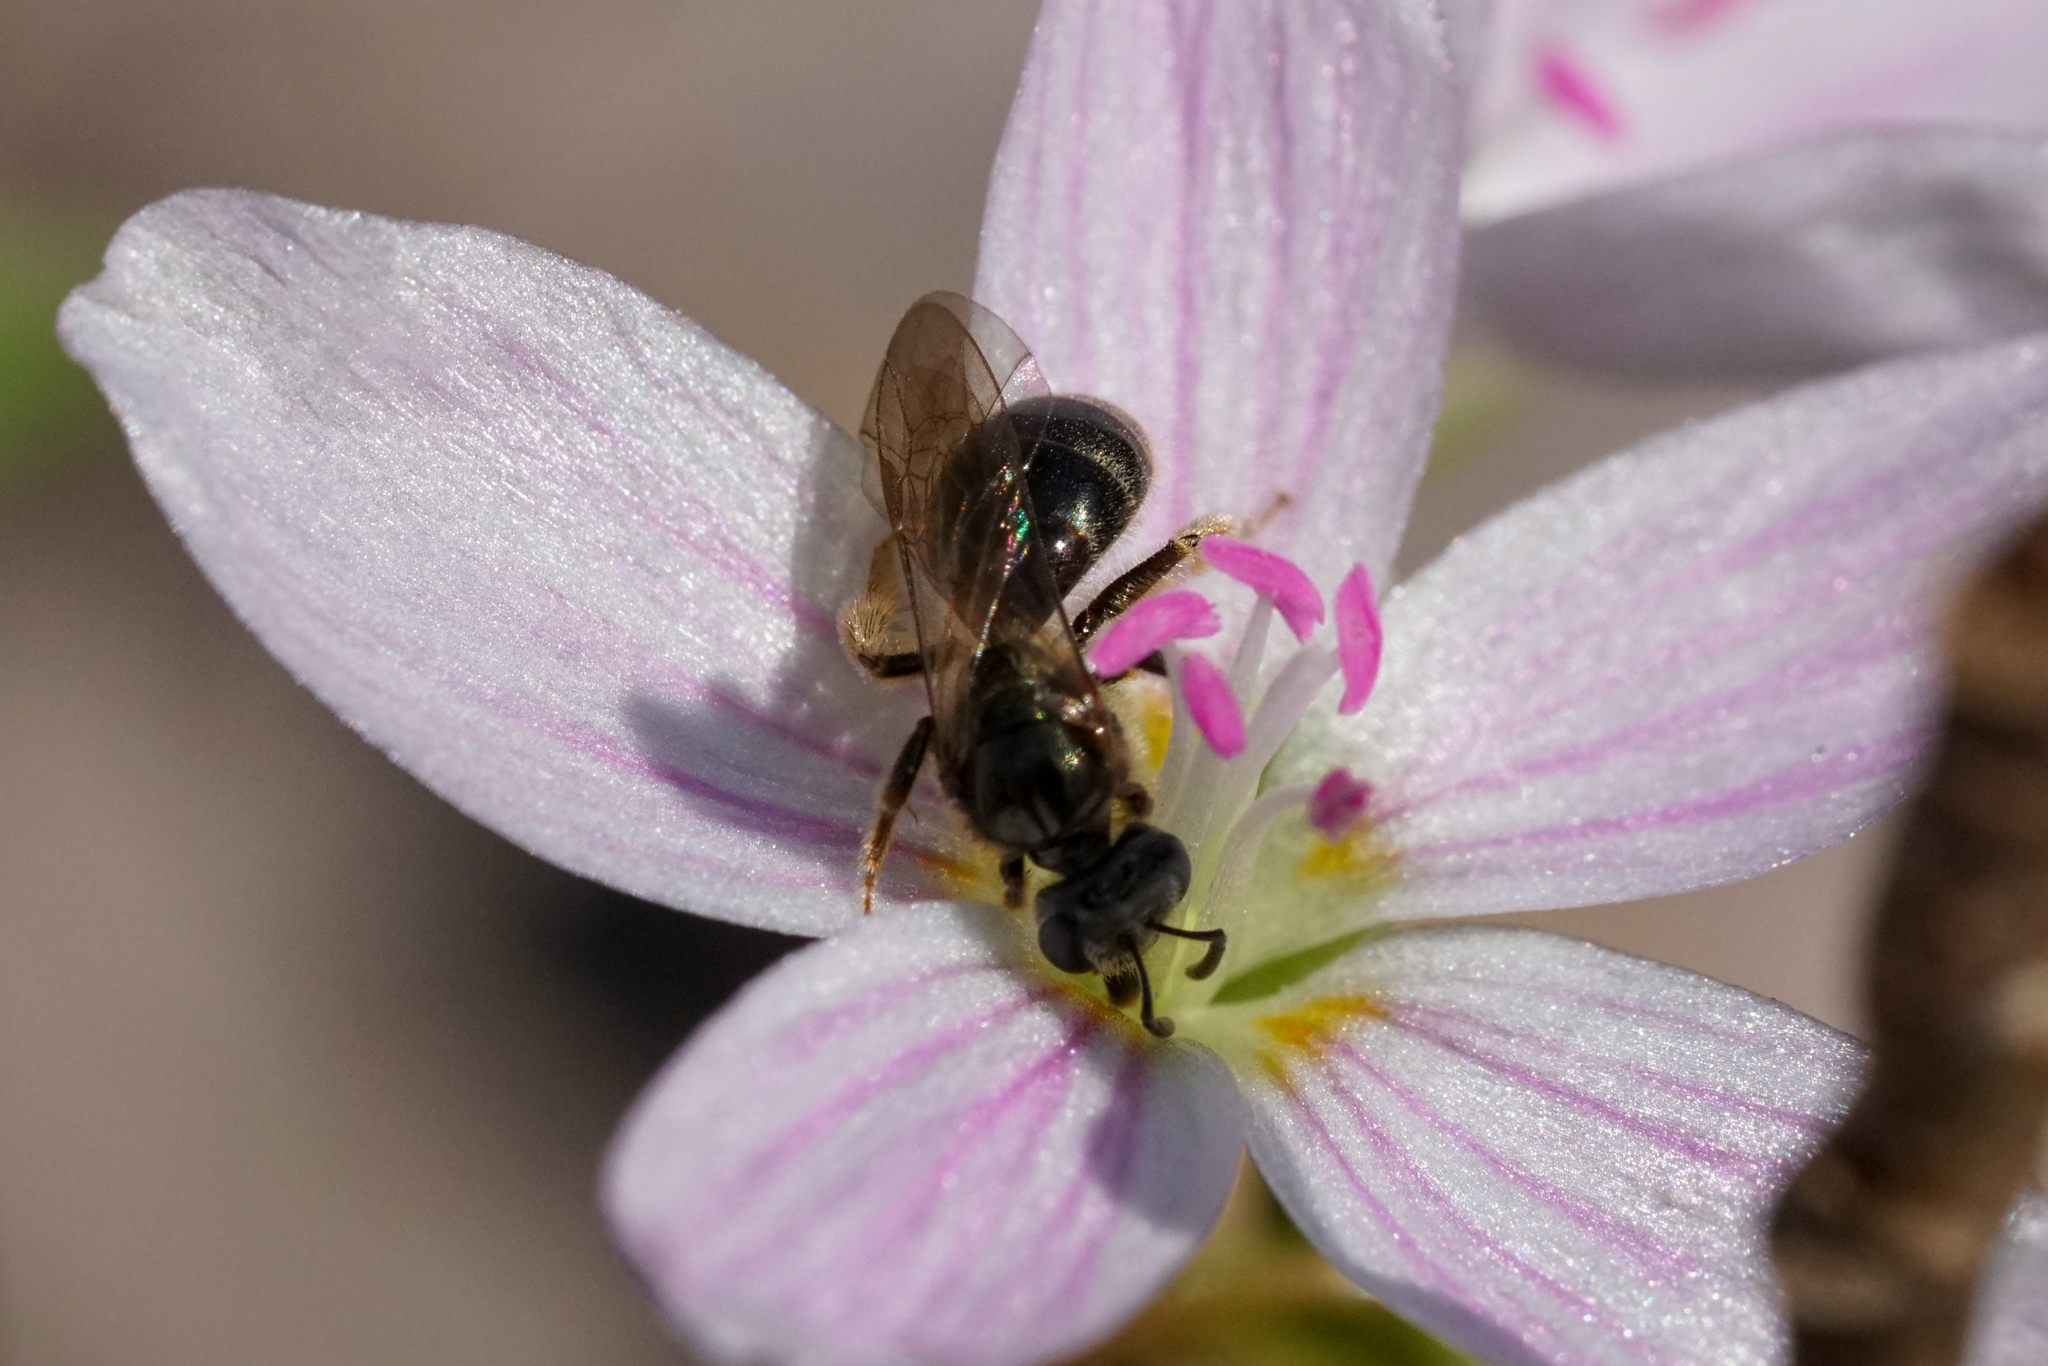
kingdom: Animalia
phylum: Arthropoda
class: Insecta
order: Hymenoptera
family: Halictidae
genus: Dialictus
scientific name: Dialictus
